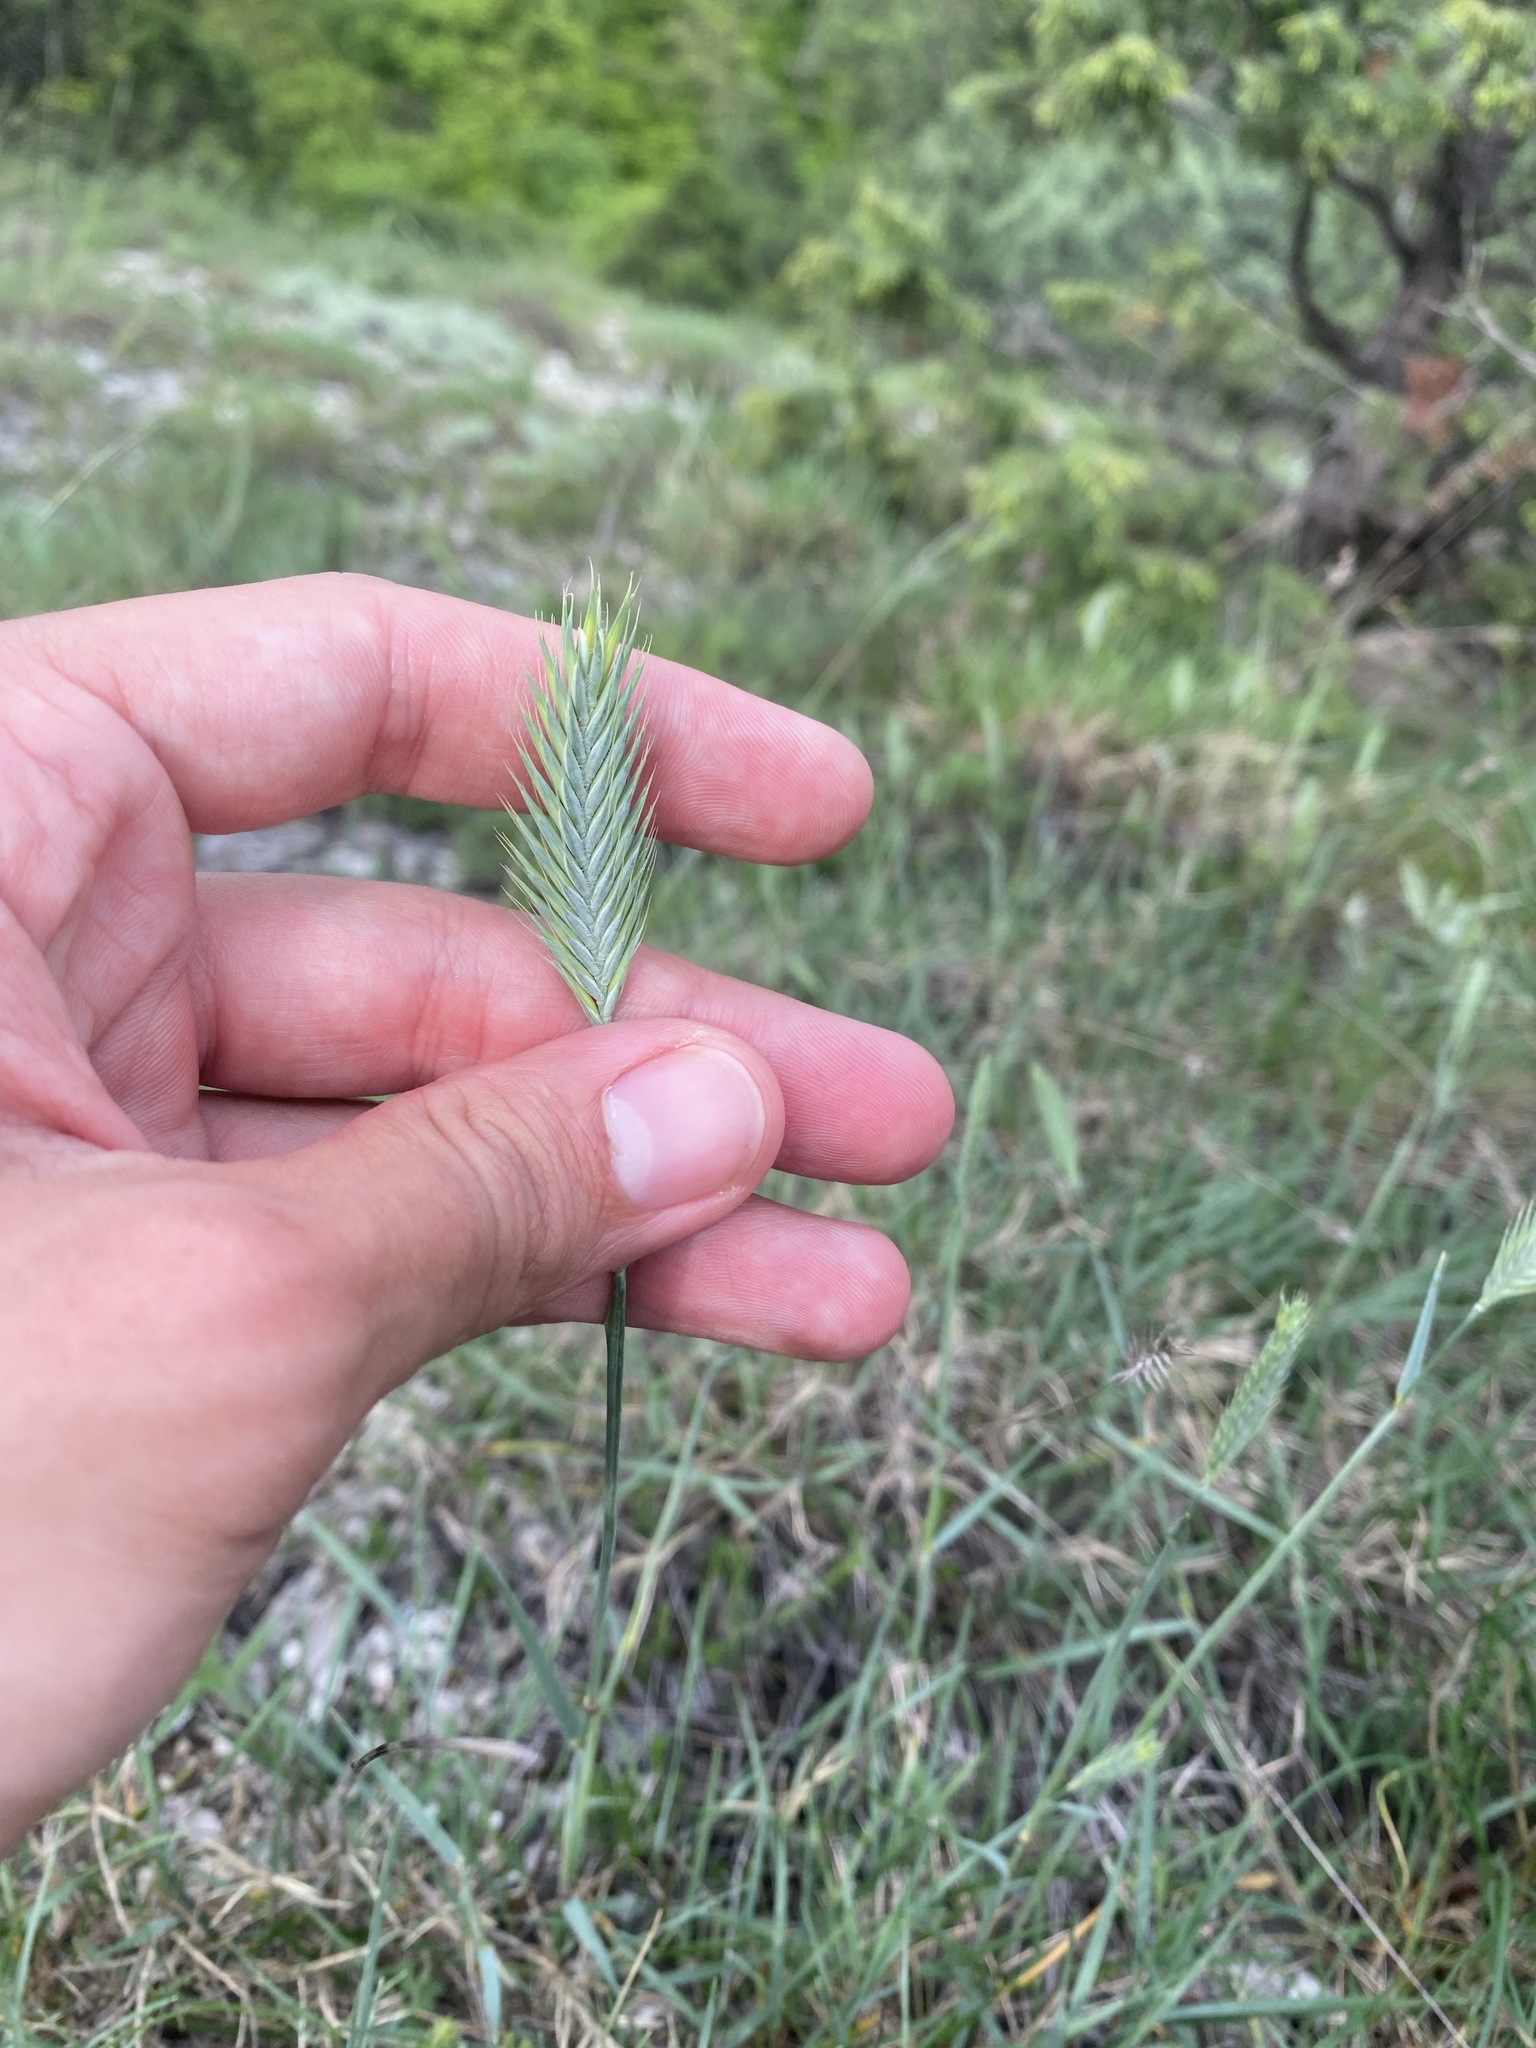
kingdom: Plantae
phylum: Tracheophyta
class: Liliopsida
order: Poales
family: Poaceae
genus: Agropyron
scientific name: Agropyron cristatum
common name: Crested wheatgrass
